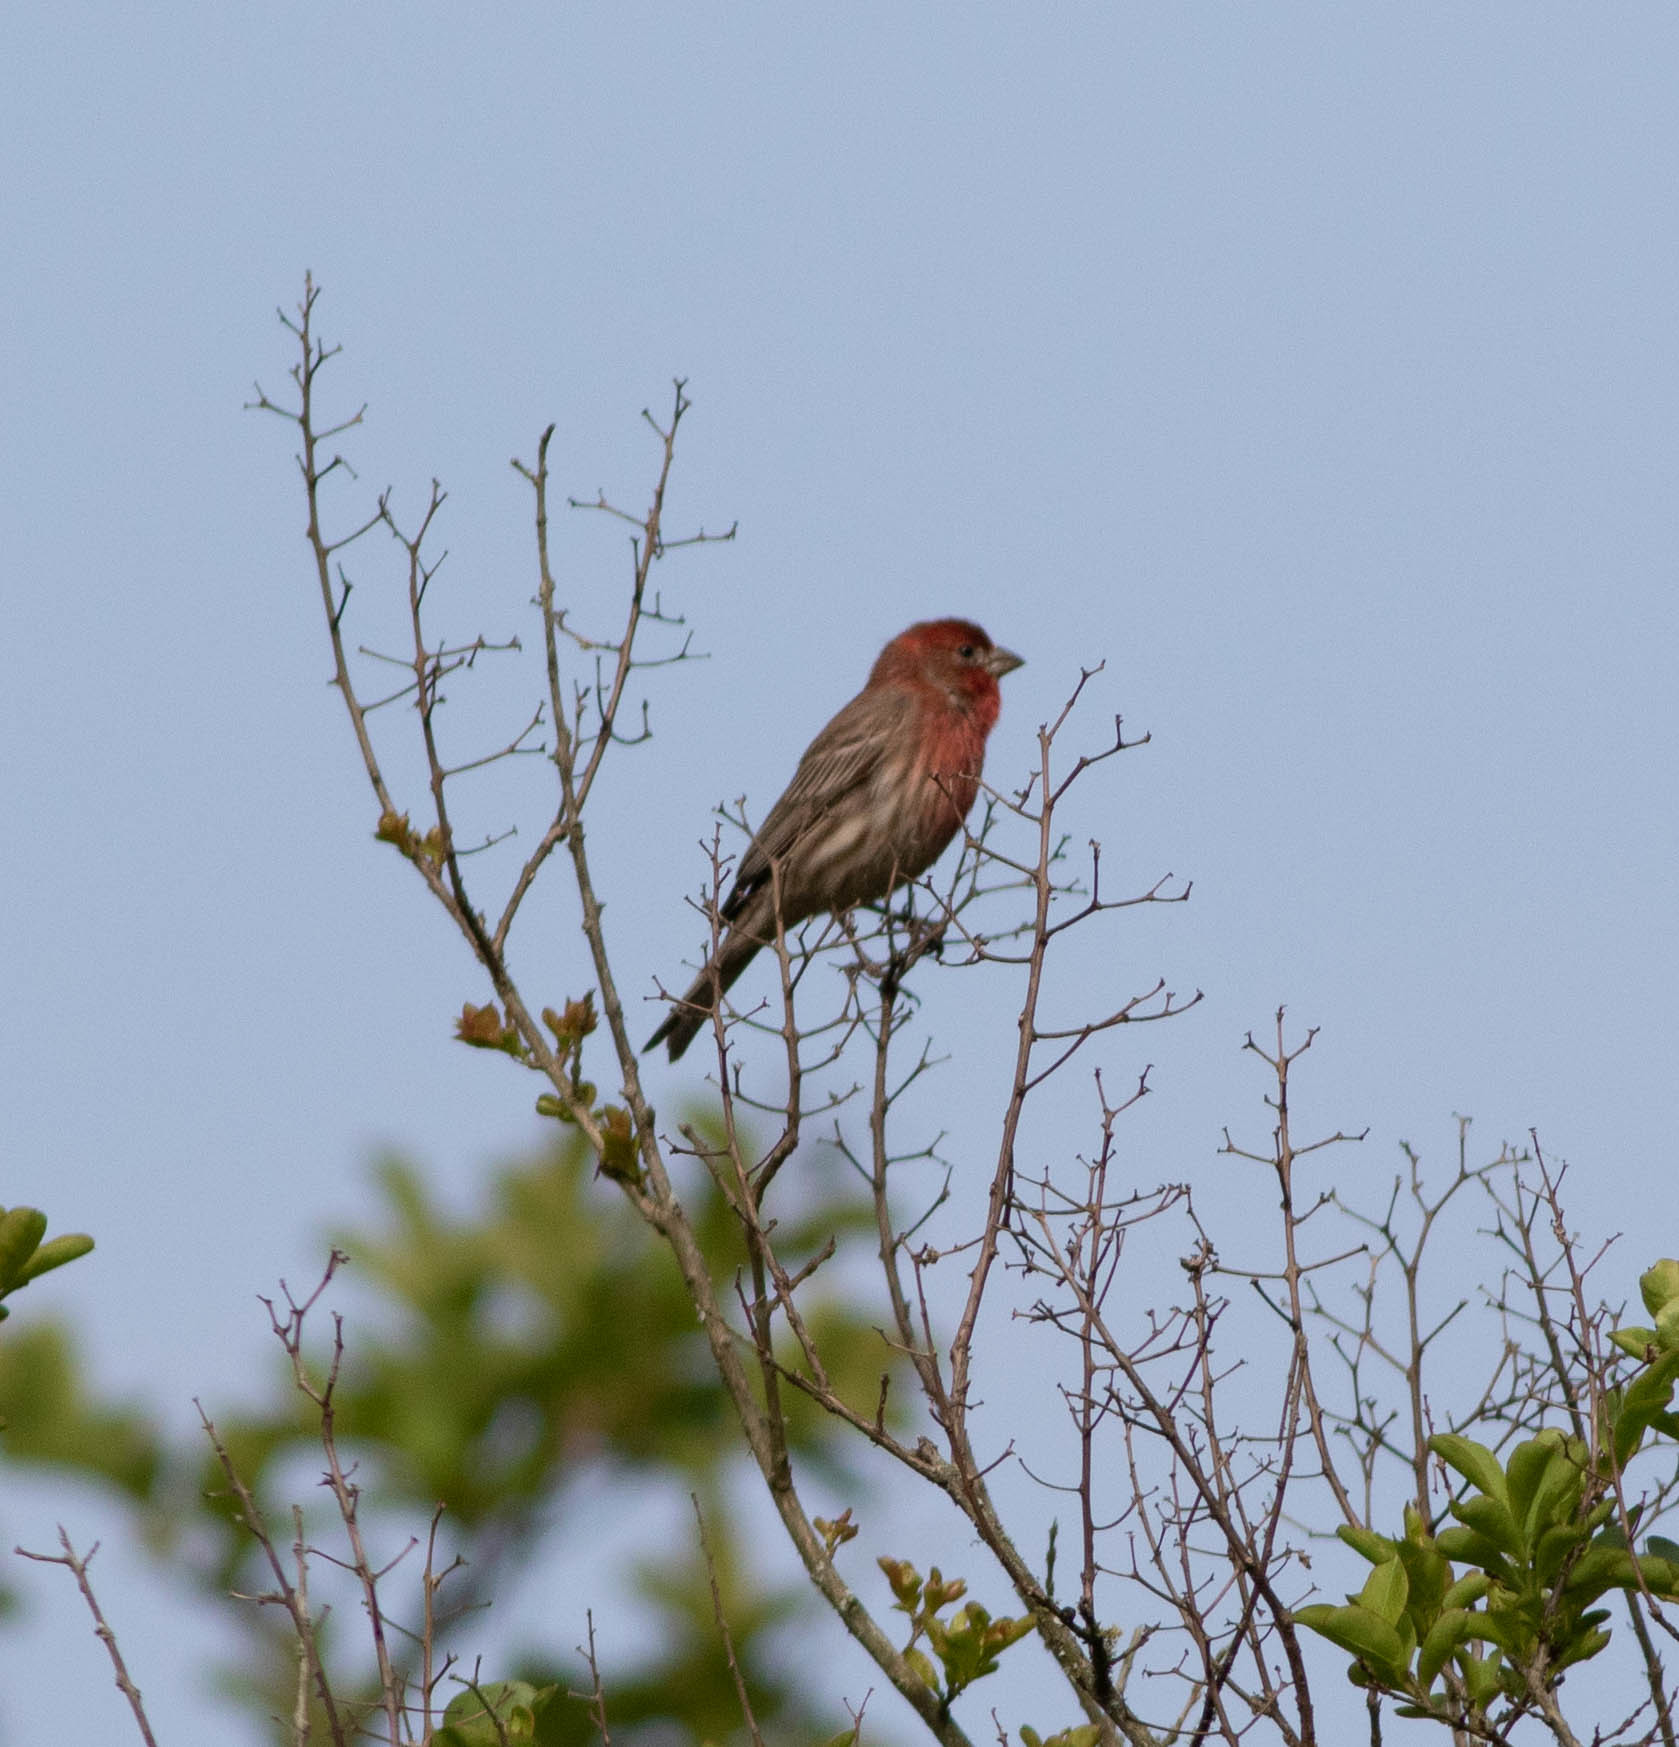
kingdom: Animalia
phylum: Chordata
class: Aves
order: Passeriformes
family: Fringillidae
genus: Haemorhous
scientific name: Haemorhous mexicanus
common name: House finch
